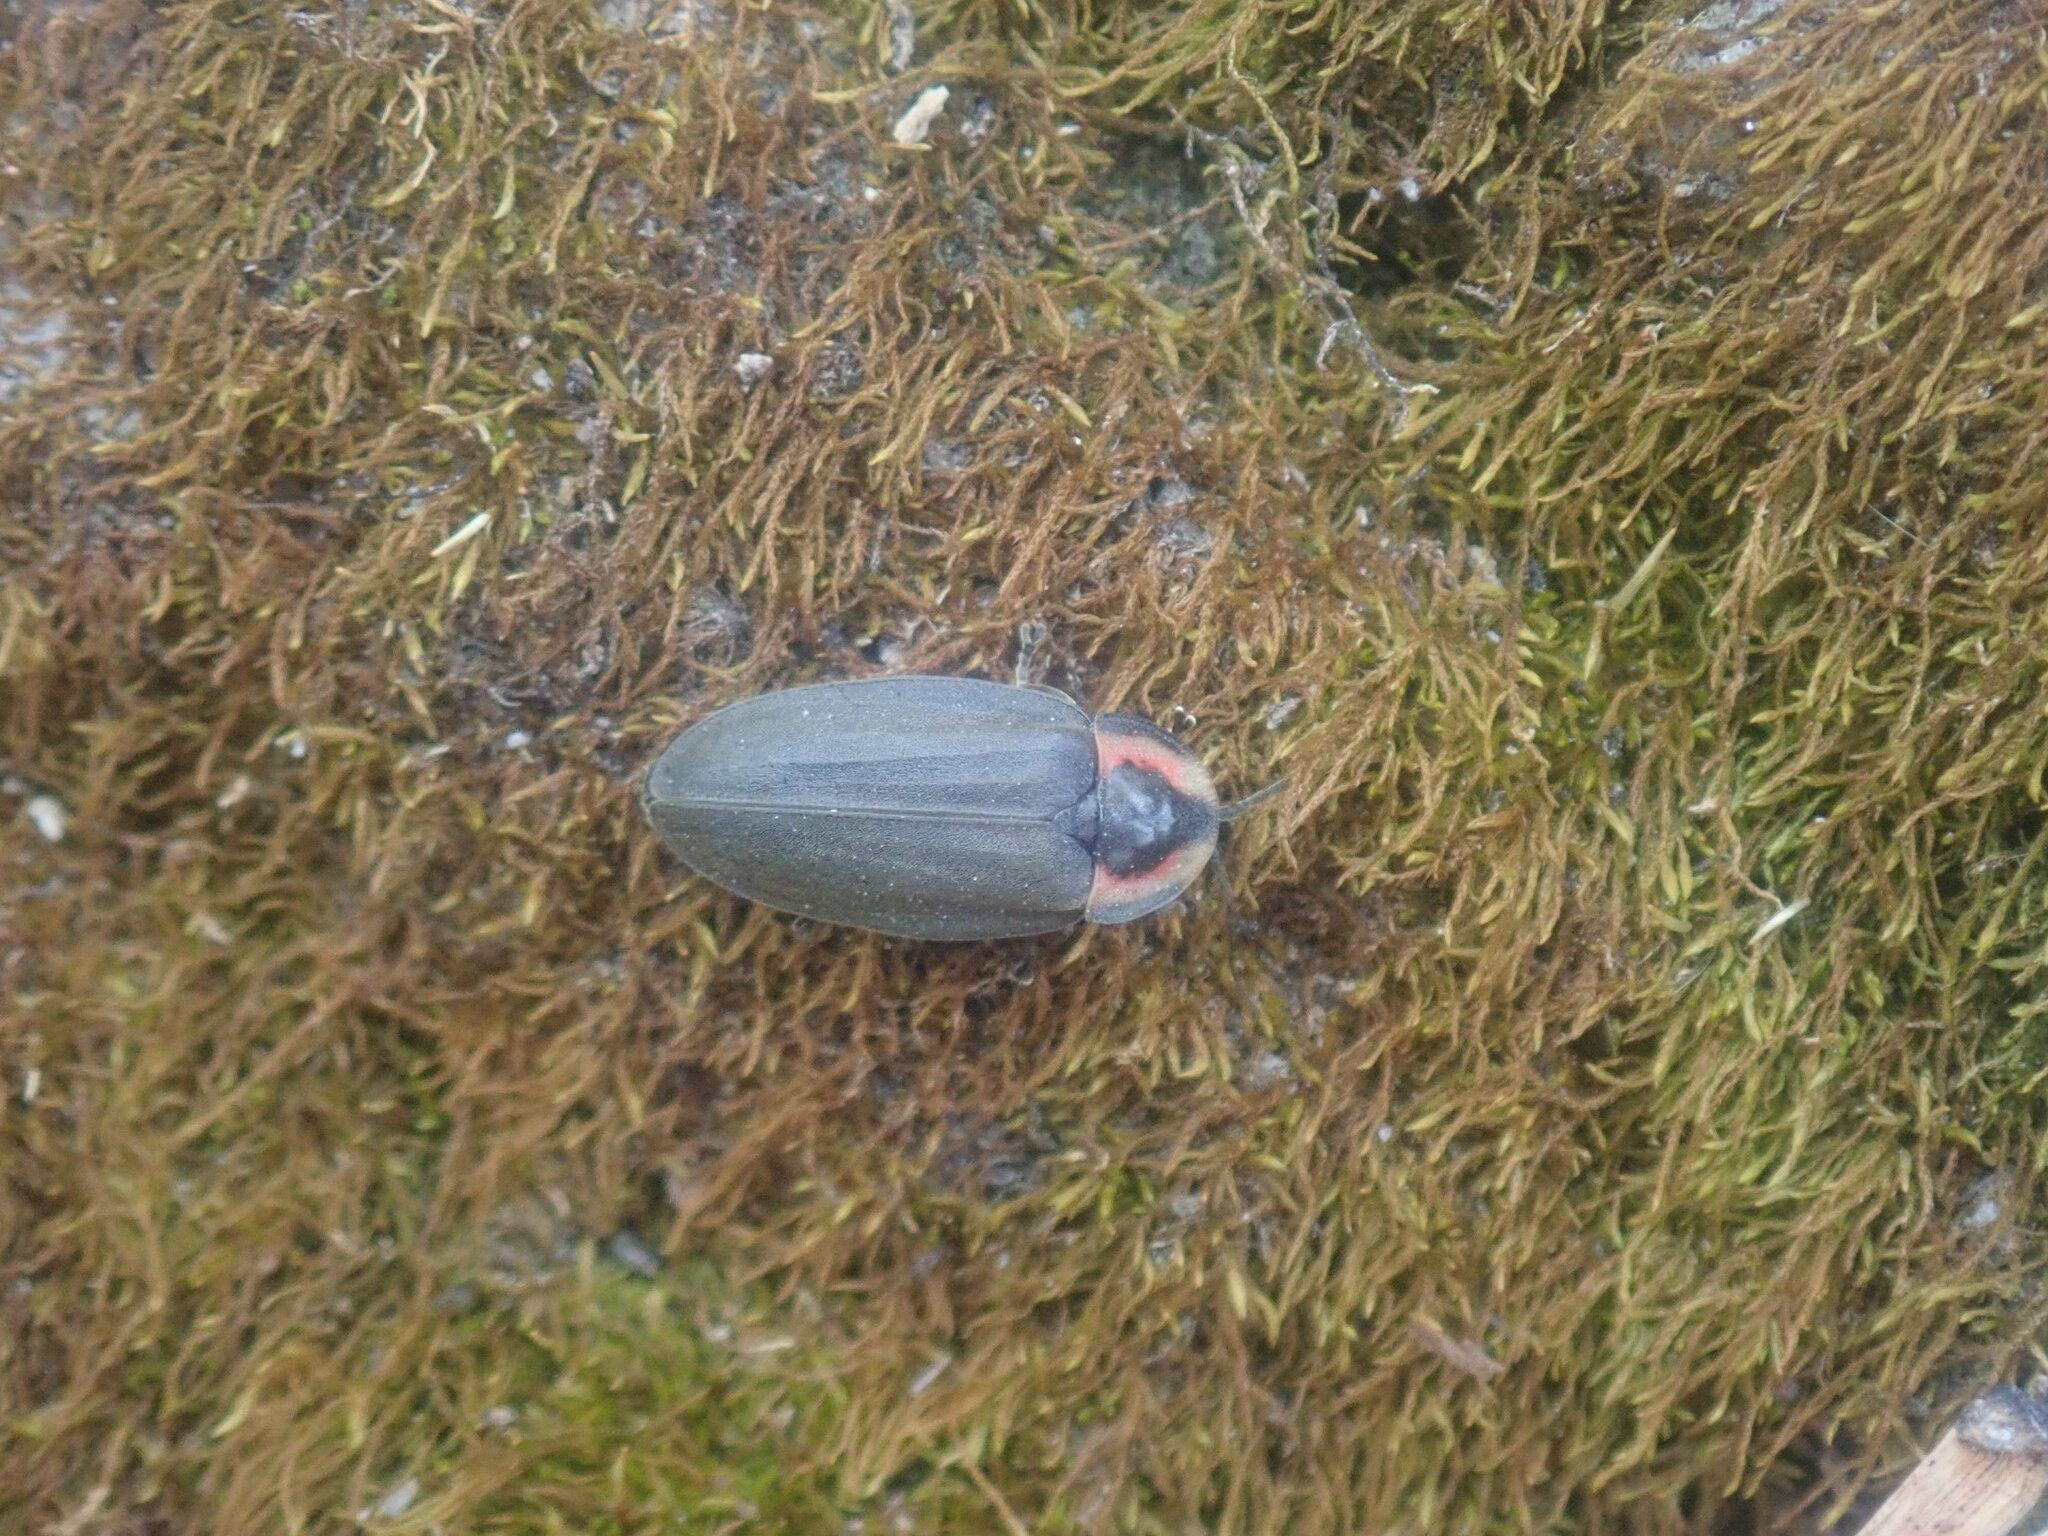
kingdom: Animalia
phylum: Arthropoda
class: Insecta
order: Coleoptera
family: Lampyridae
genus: Photinus
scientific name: Photinus corrusca
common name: Winter firefly
